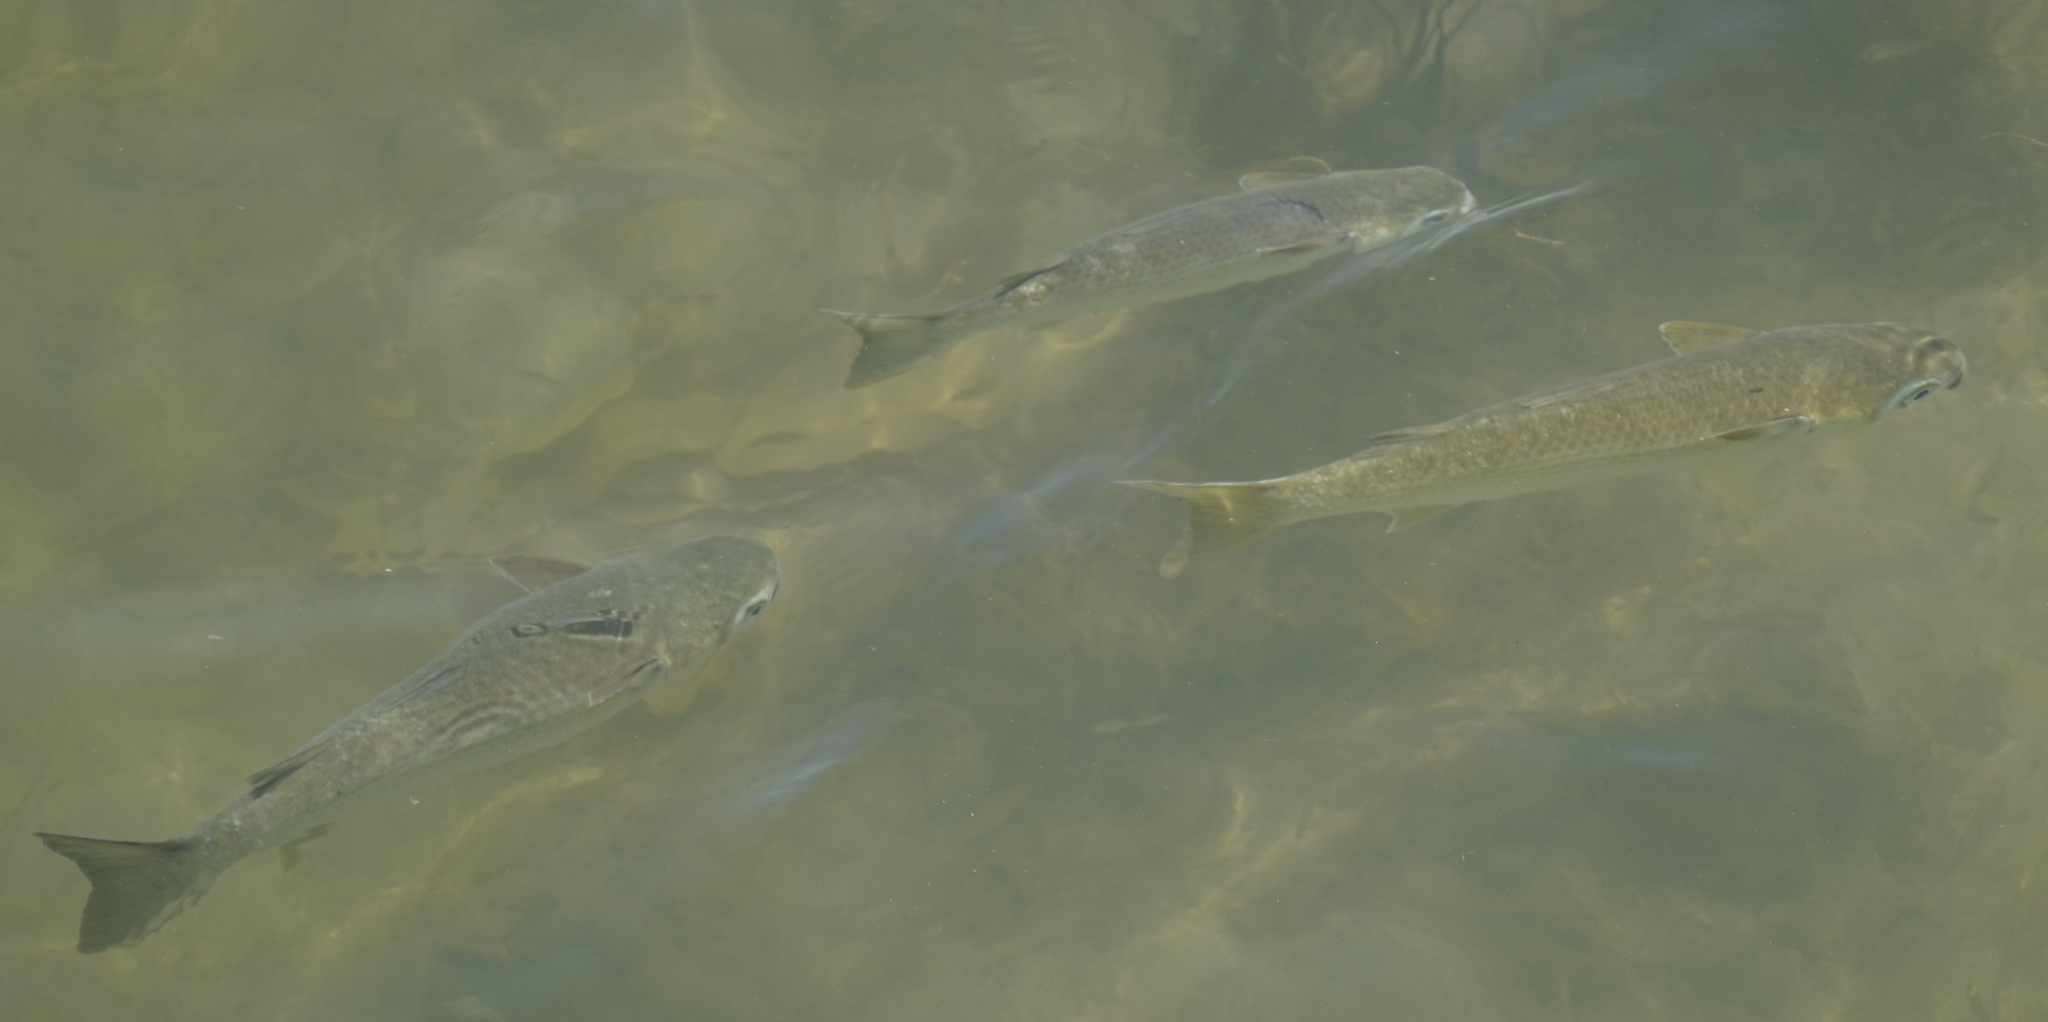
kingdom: Animalia
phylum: Chordata
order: Mugiliformes
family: Mugilidae
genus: Mugil
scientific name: Mugil cephalus
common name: Grey mullet
